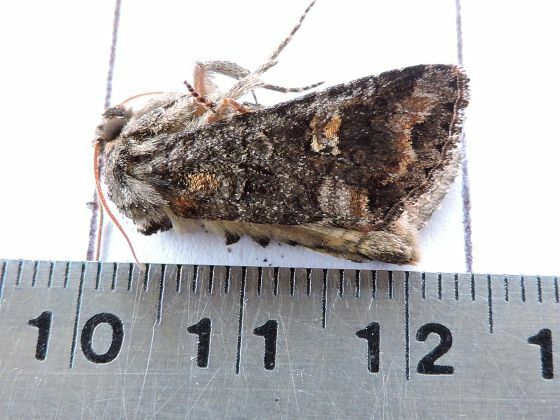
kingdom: Animalia
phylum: Arthropoda
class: Insecta
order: Lepidoptera
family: Noctuidae
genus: Spiramater
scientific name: Spiramater lutra
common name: Otter spiramater moth
